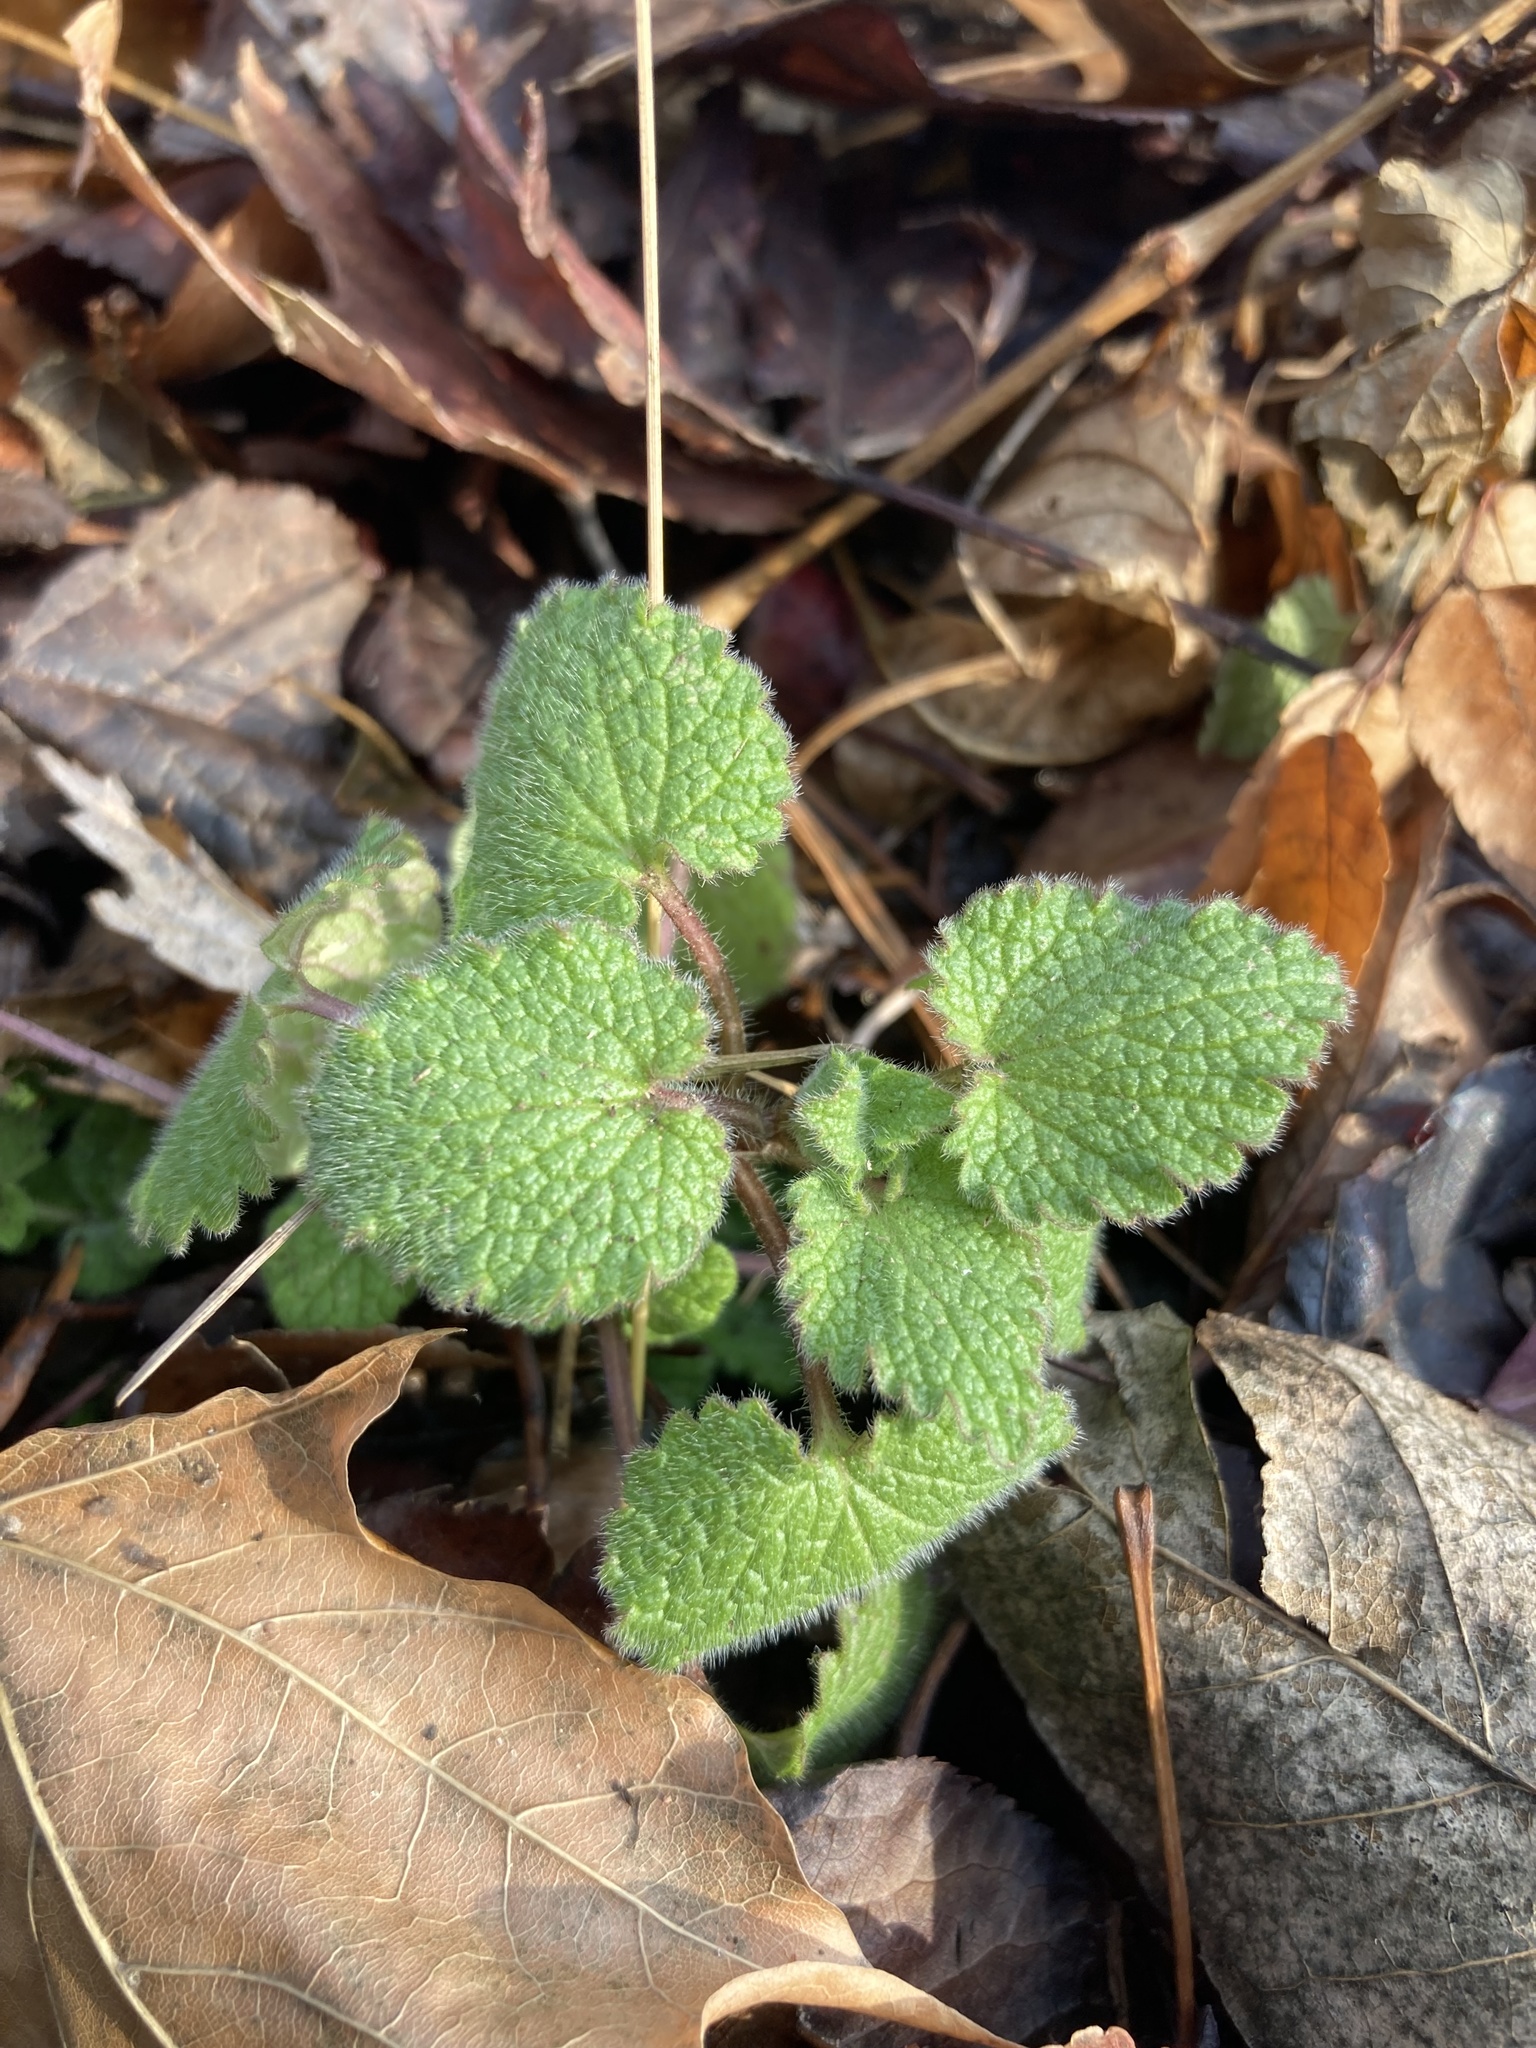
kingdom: Plantae
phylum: Tracheophyta
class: Magnoliopsida
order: Lamiales
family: Lamiaceae
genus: Lamium
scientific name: Lamium purpureum
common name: Red dead-nettle
